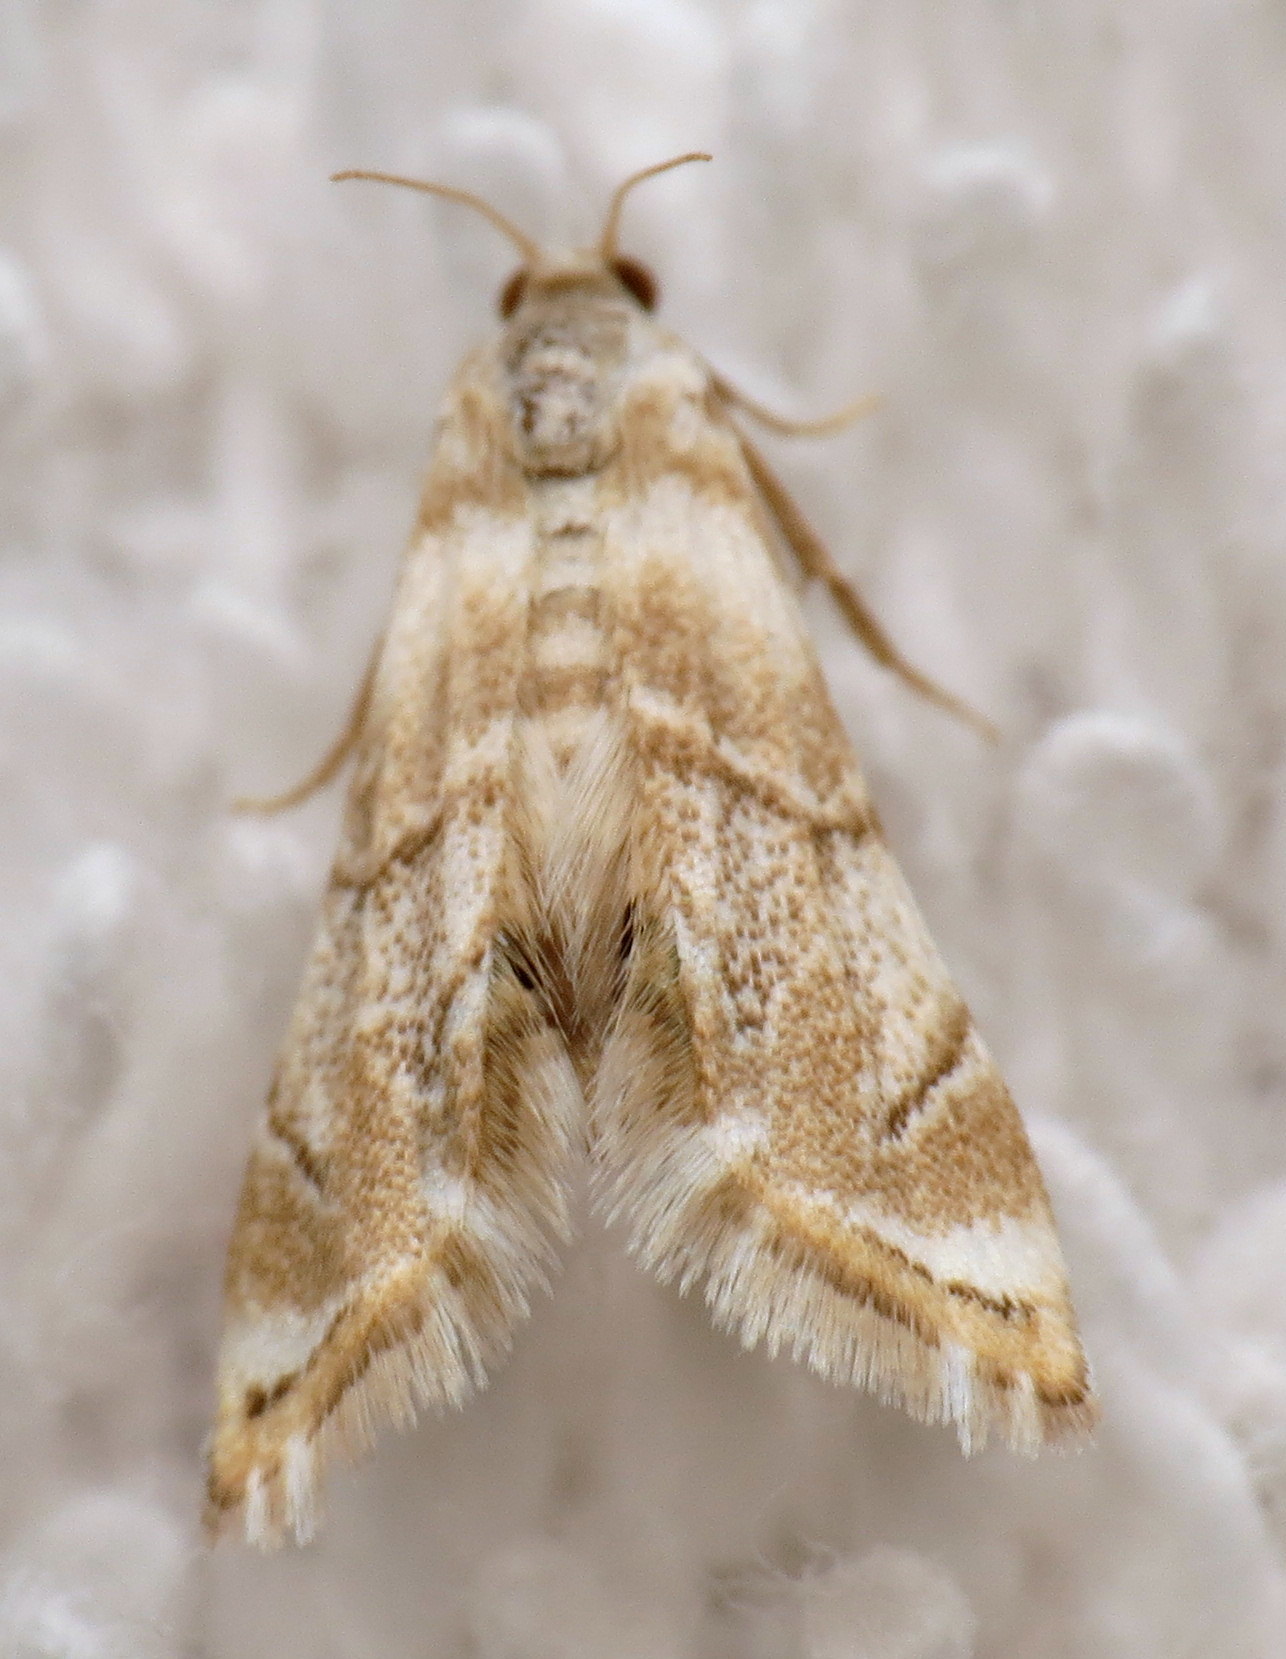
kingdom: Animalia
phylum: Arthropoda
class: Insecta
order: Lepidoptera
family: Crambidae
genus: Eoparargyractis
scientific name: Eoparargyractis plevie
